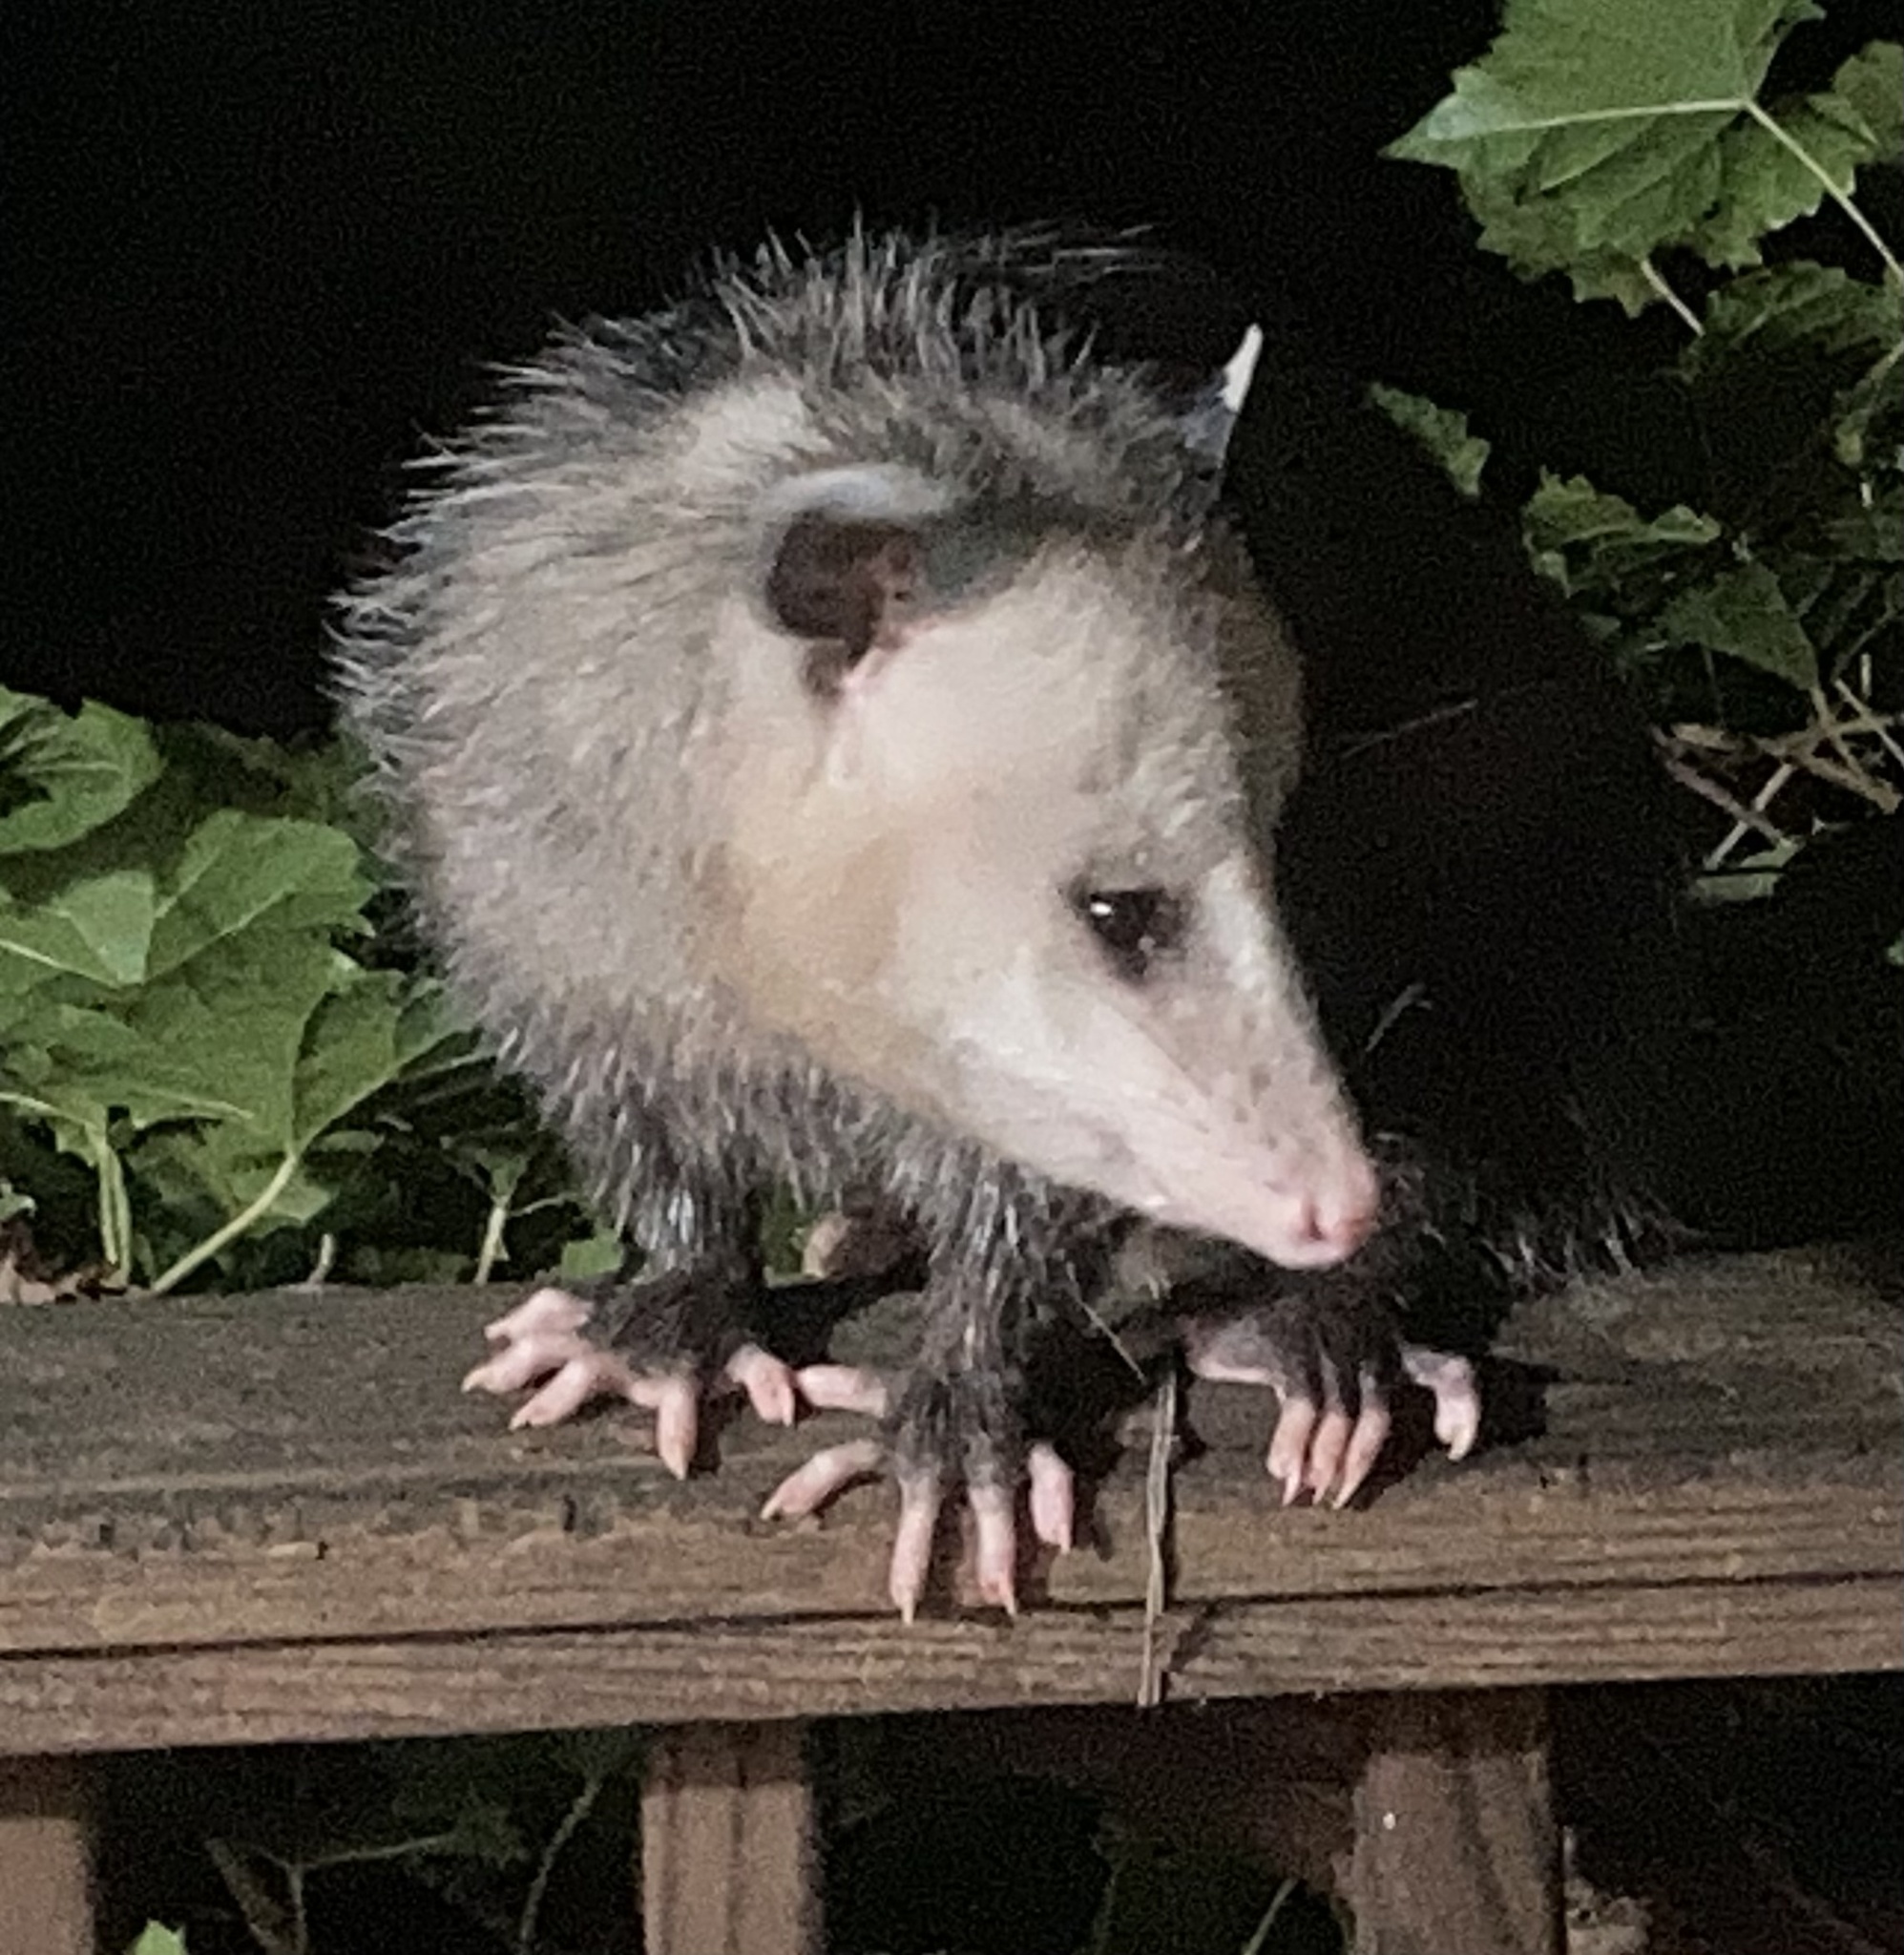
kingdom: Animalia
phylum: Chordata
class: Mammalia
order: Didelphimorphia
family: Didelphidae
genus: Didelphis
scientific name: Didelphis virginiana
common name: Virginia opossum
